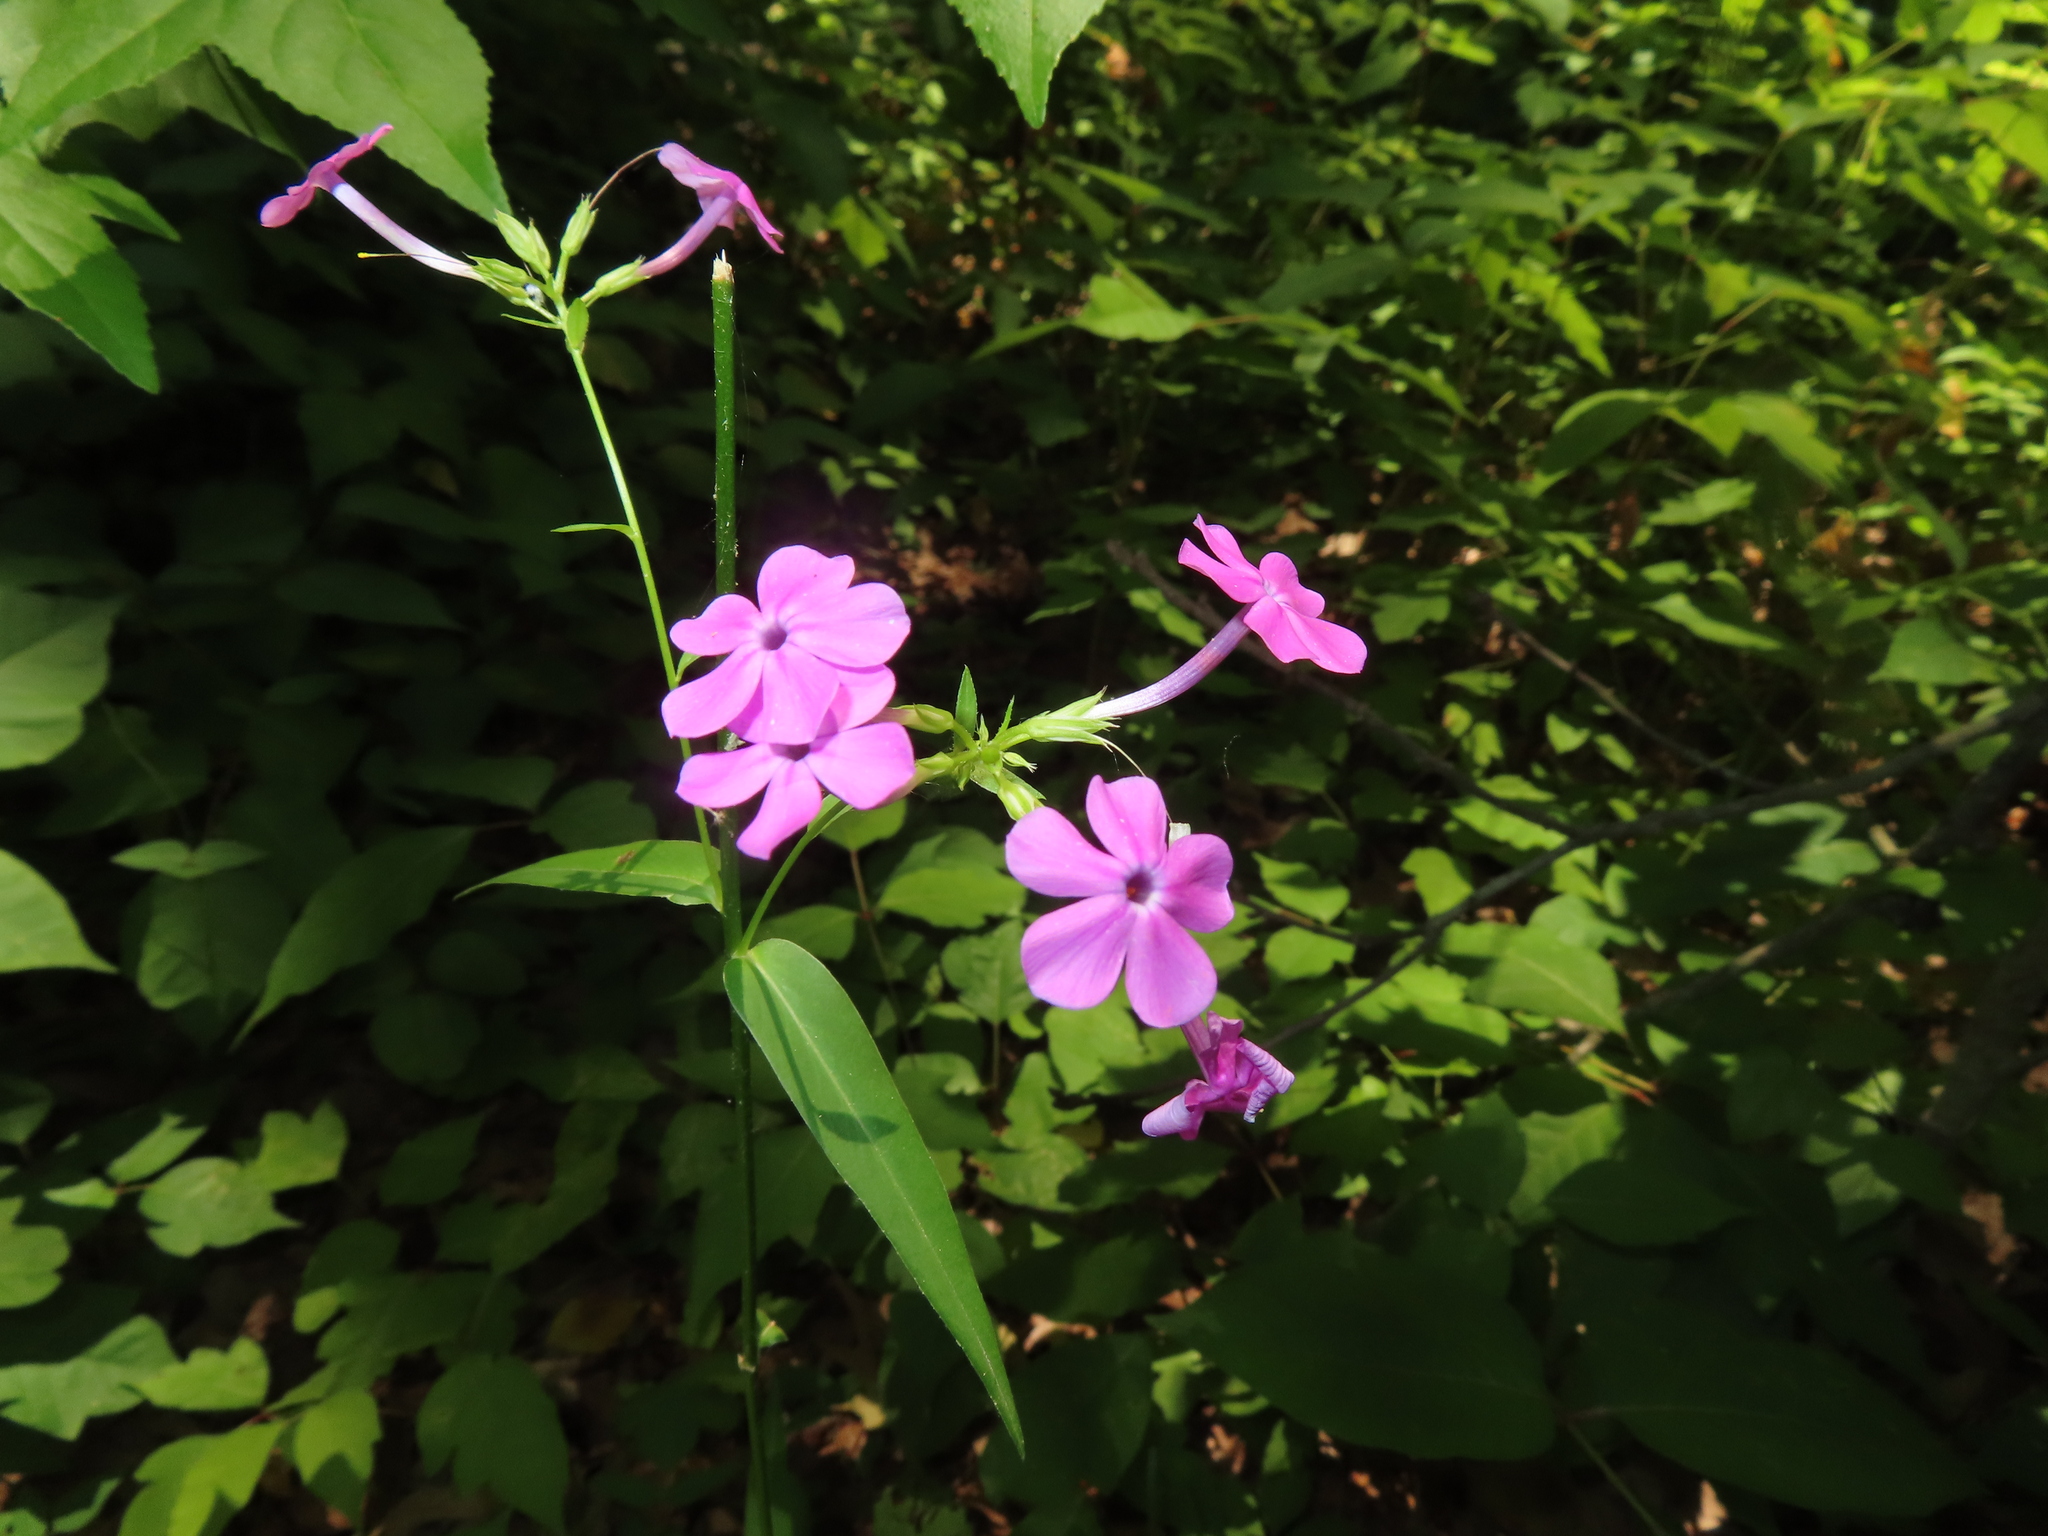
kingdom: Plantae
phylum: Tracheophyta
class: Magnoliopsida
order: Ericales
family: Polemoniaceae
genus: Phlox
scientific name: Phlox glaberrima
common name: Smooth phlox
